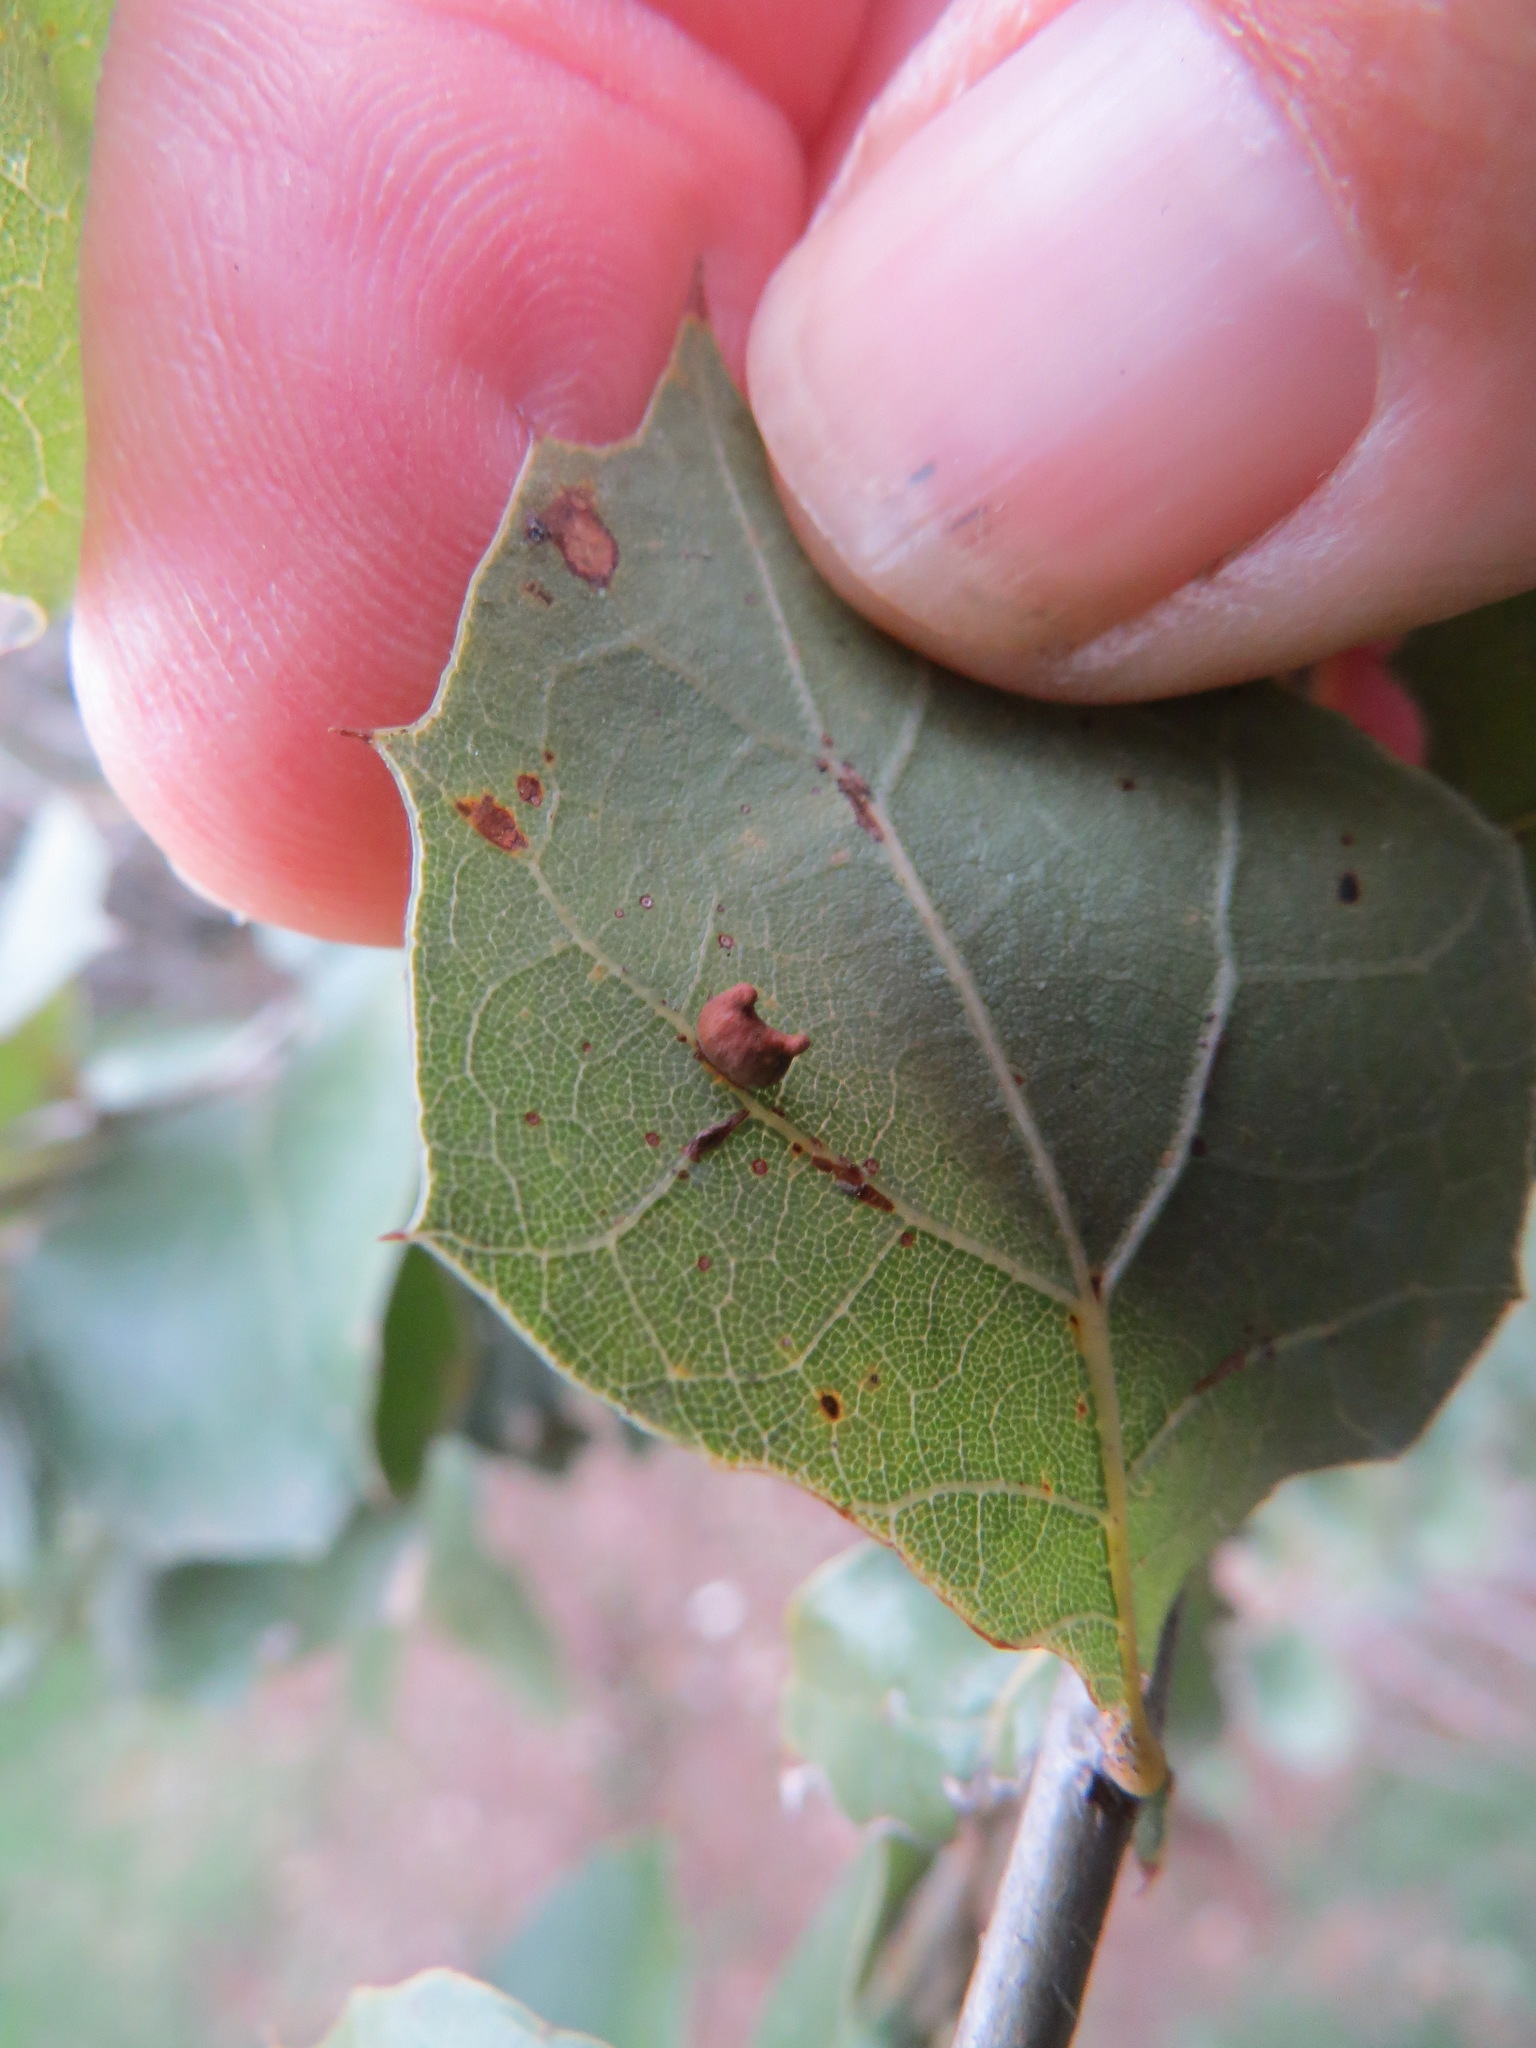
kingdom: Animalia
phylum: Arthropoda
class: Insecta
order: Hymenoptera
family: Cynipidae
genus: Dryocosmus
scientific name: Dryocosmus
